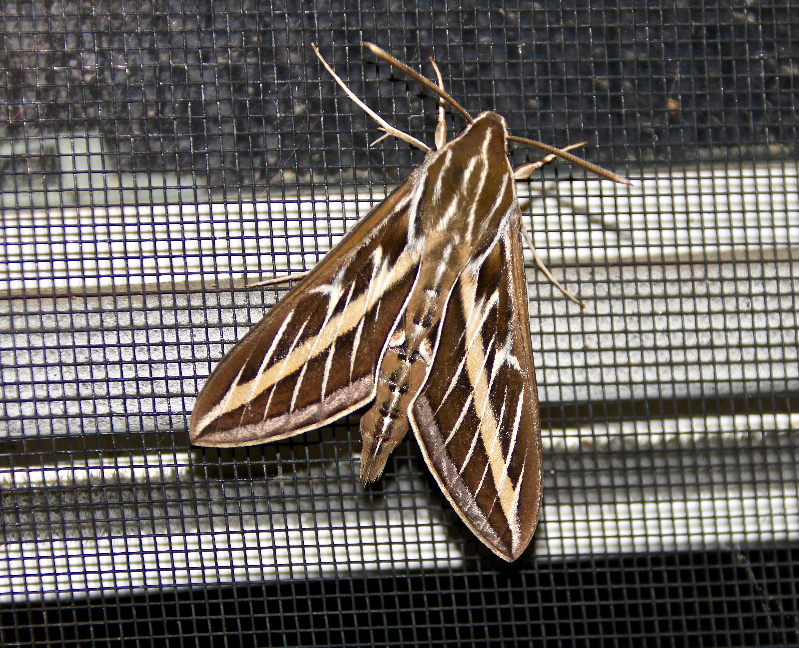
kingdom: Animalia
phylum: Arthropoda
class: Insecta
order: Lepidoptera
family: Sphingidae
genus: Hyles
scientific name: Hyles lineata
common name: White-lined sphinx
